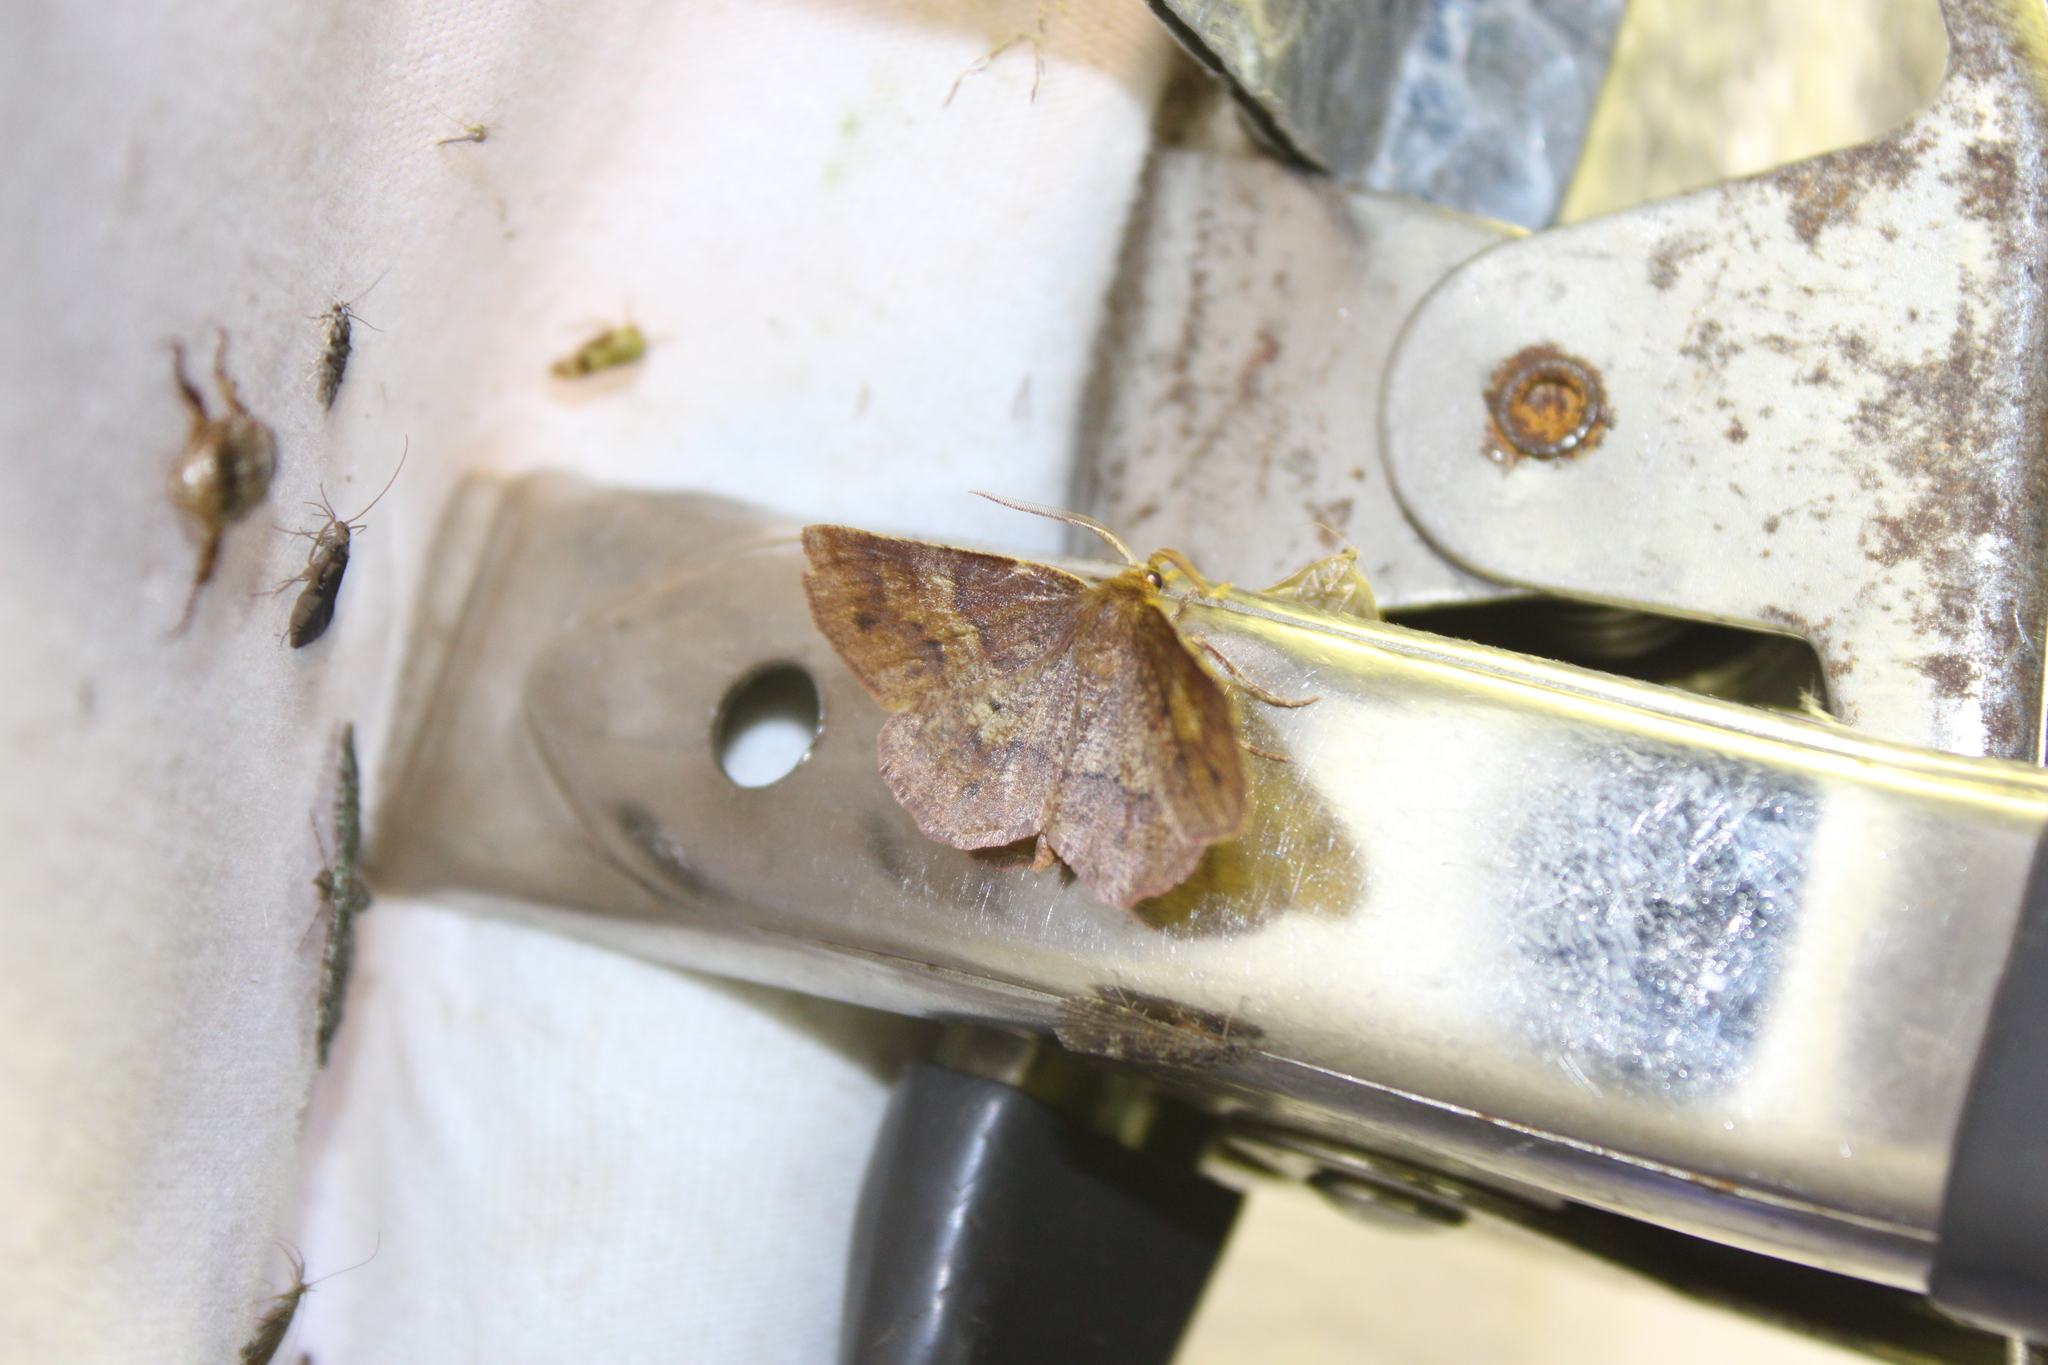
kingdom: Animalia
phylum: Arthropoda
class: Insecta
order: Lepidoptera
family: Geometridae
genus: Metarranthis
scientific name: Metarranthis angularia
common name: Angled metarranthis moth
